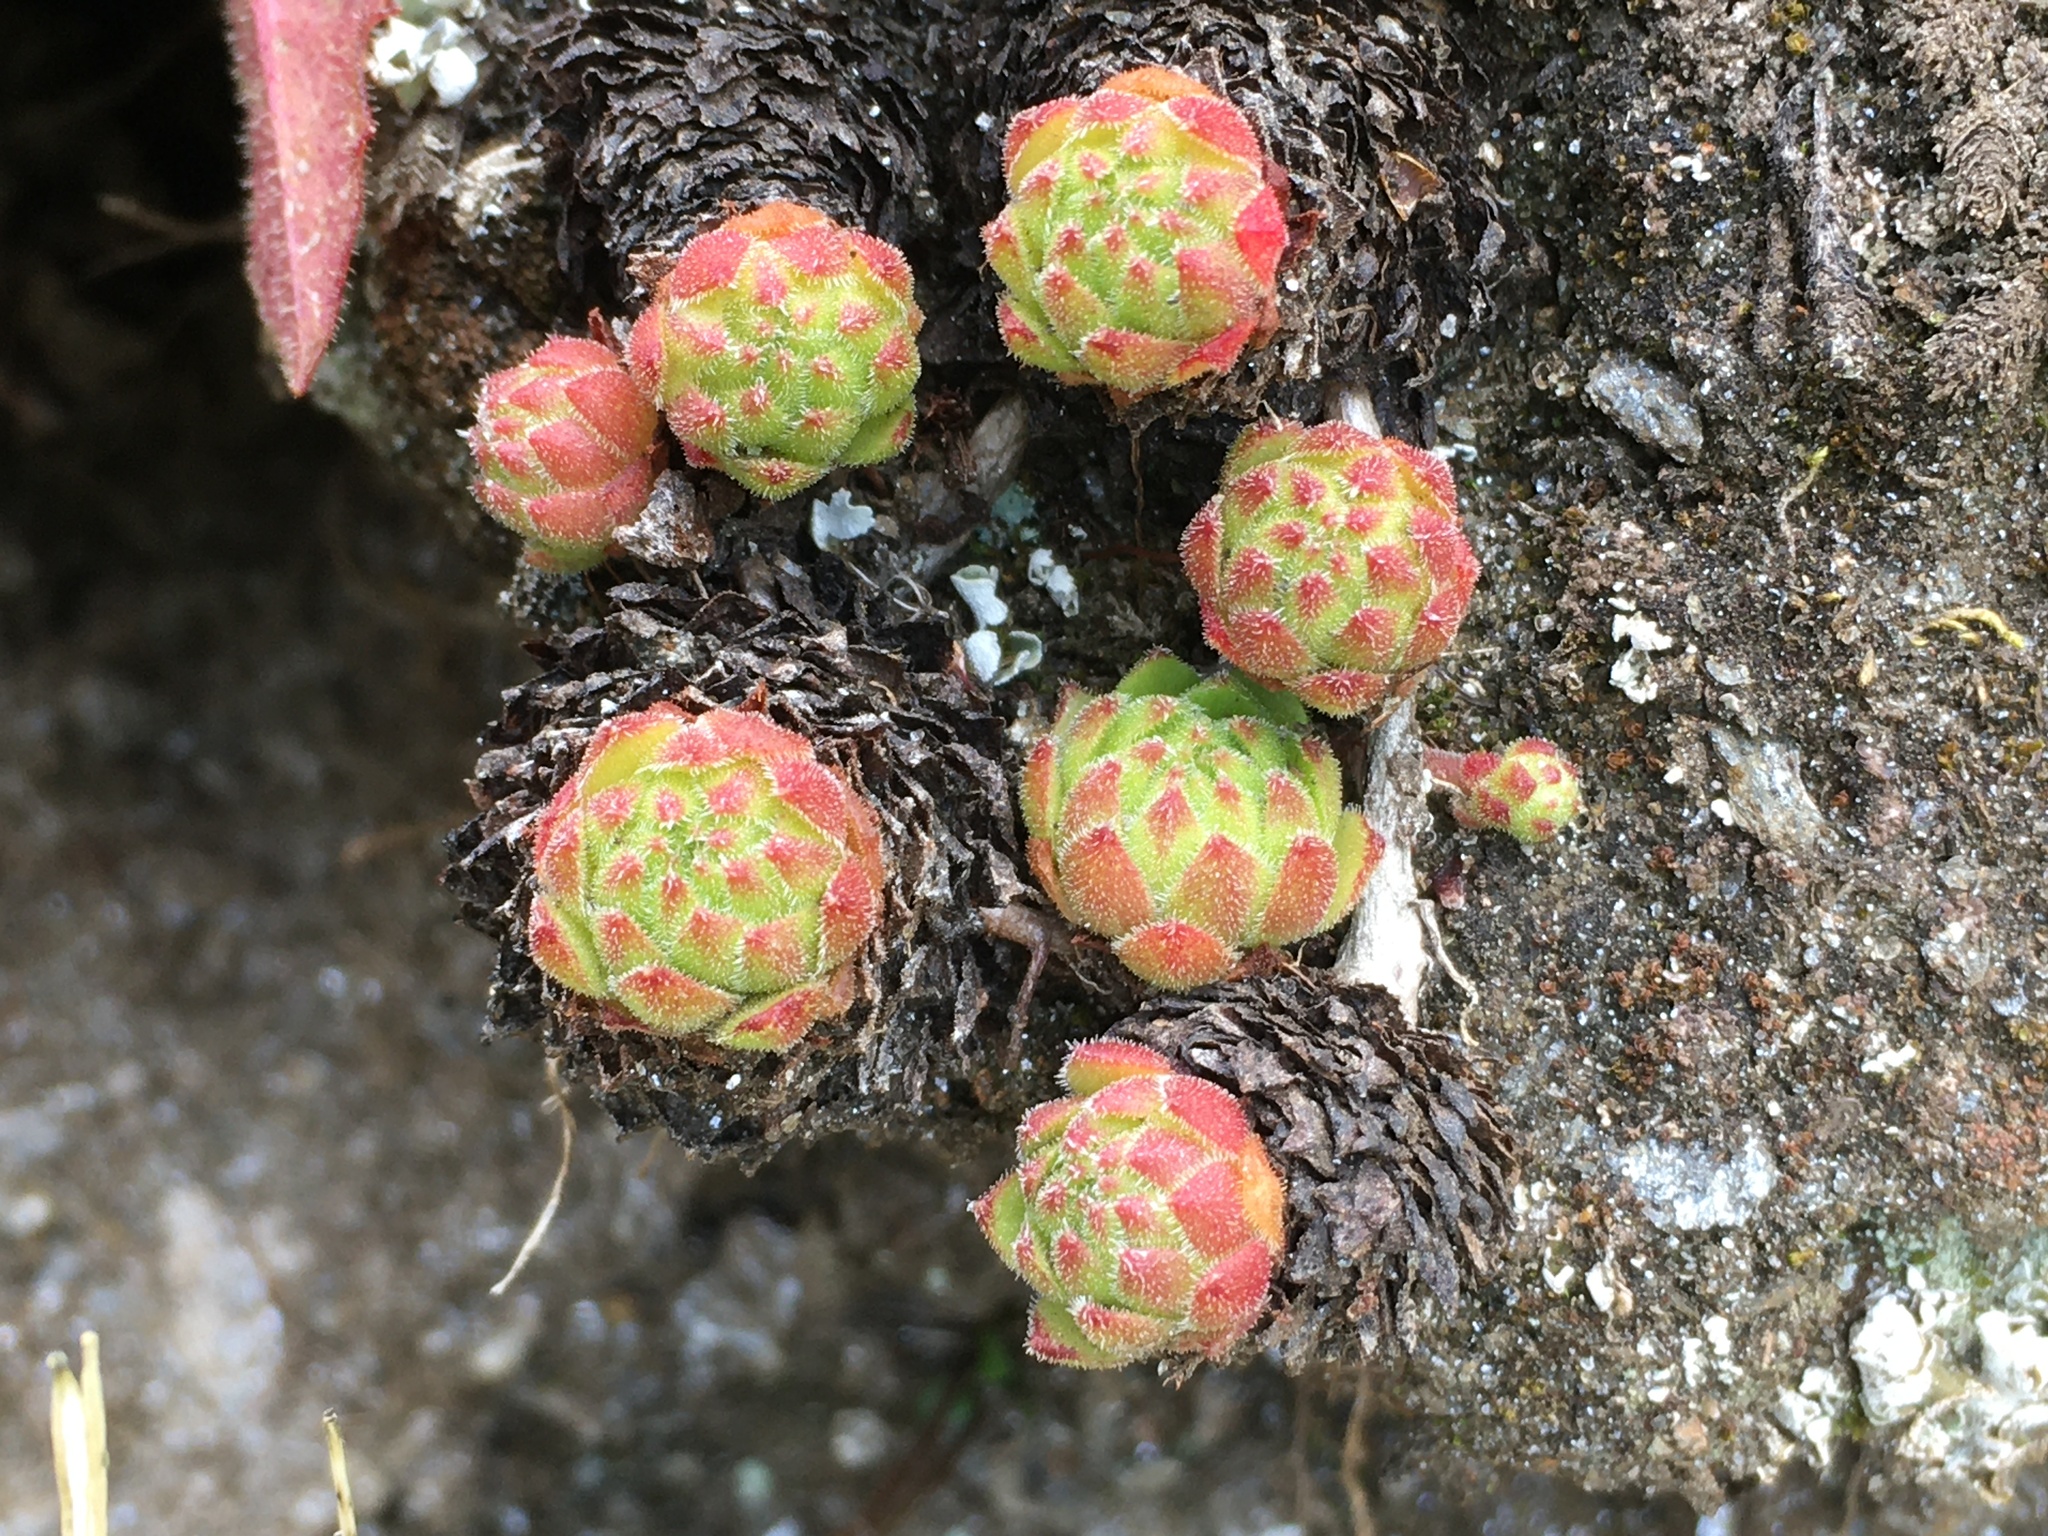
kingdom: Plantae
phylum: Tracheophyta
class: Magnoliopsida
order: Saxifragales
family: Crassulaceae
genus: Sempervivum
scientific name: Sempervivum montanum
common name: Mountain house-leek
